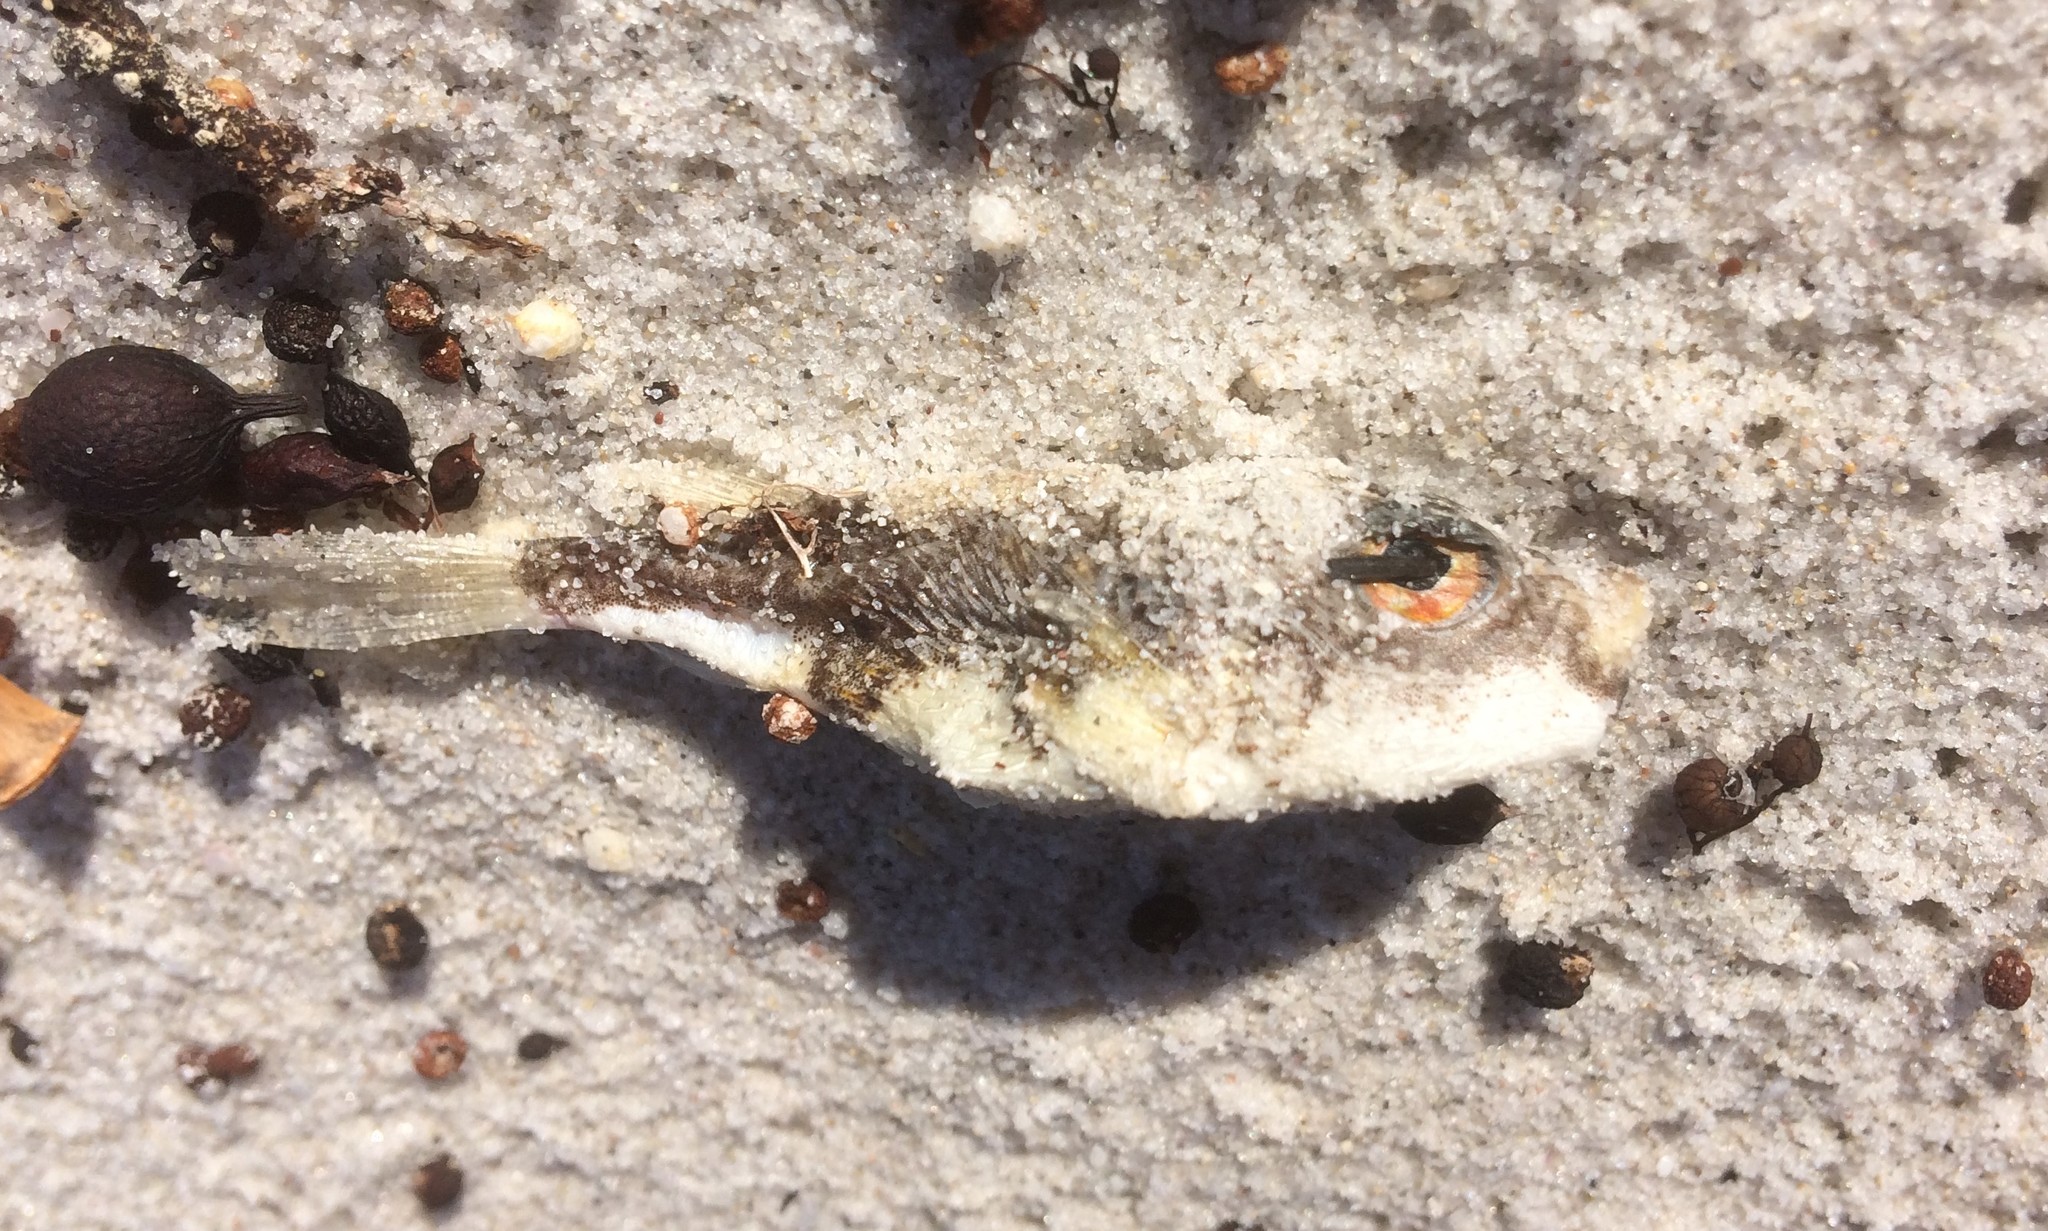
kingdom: Animalia
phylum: Chordata
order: Tetraodontiformes
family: Tetraodontidae
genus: Polyspina
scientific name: Polyspina piosae
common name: Orange-barred pufferfish
